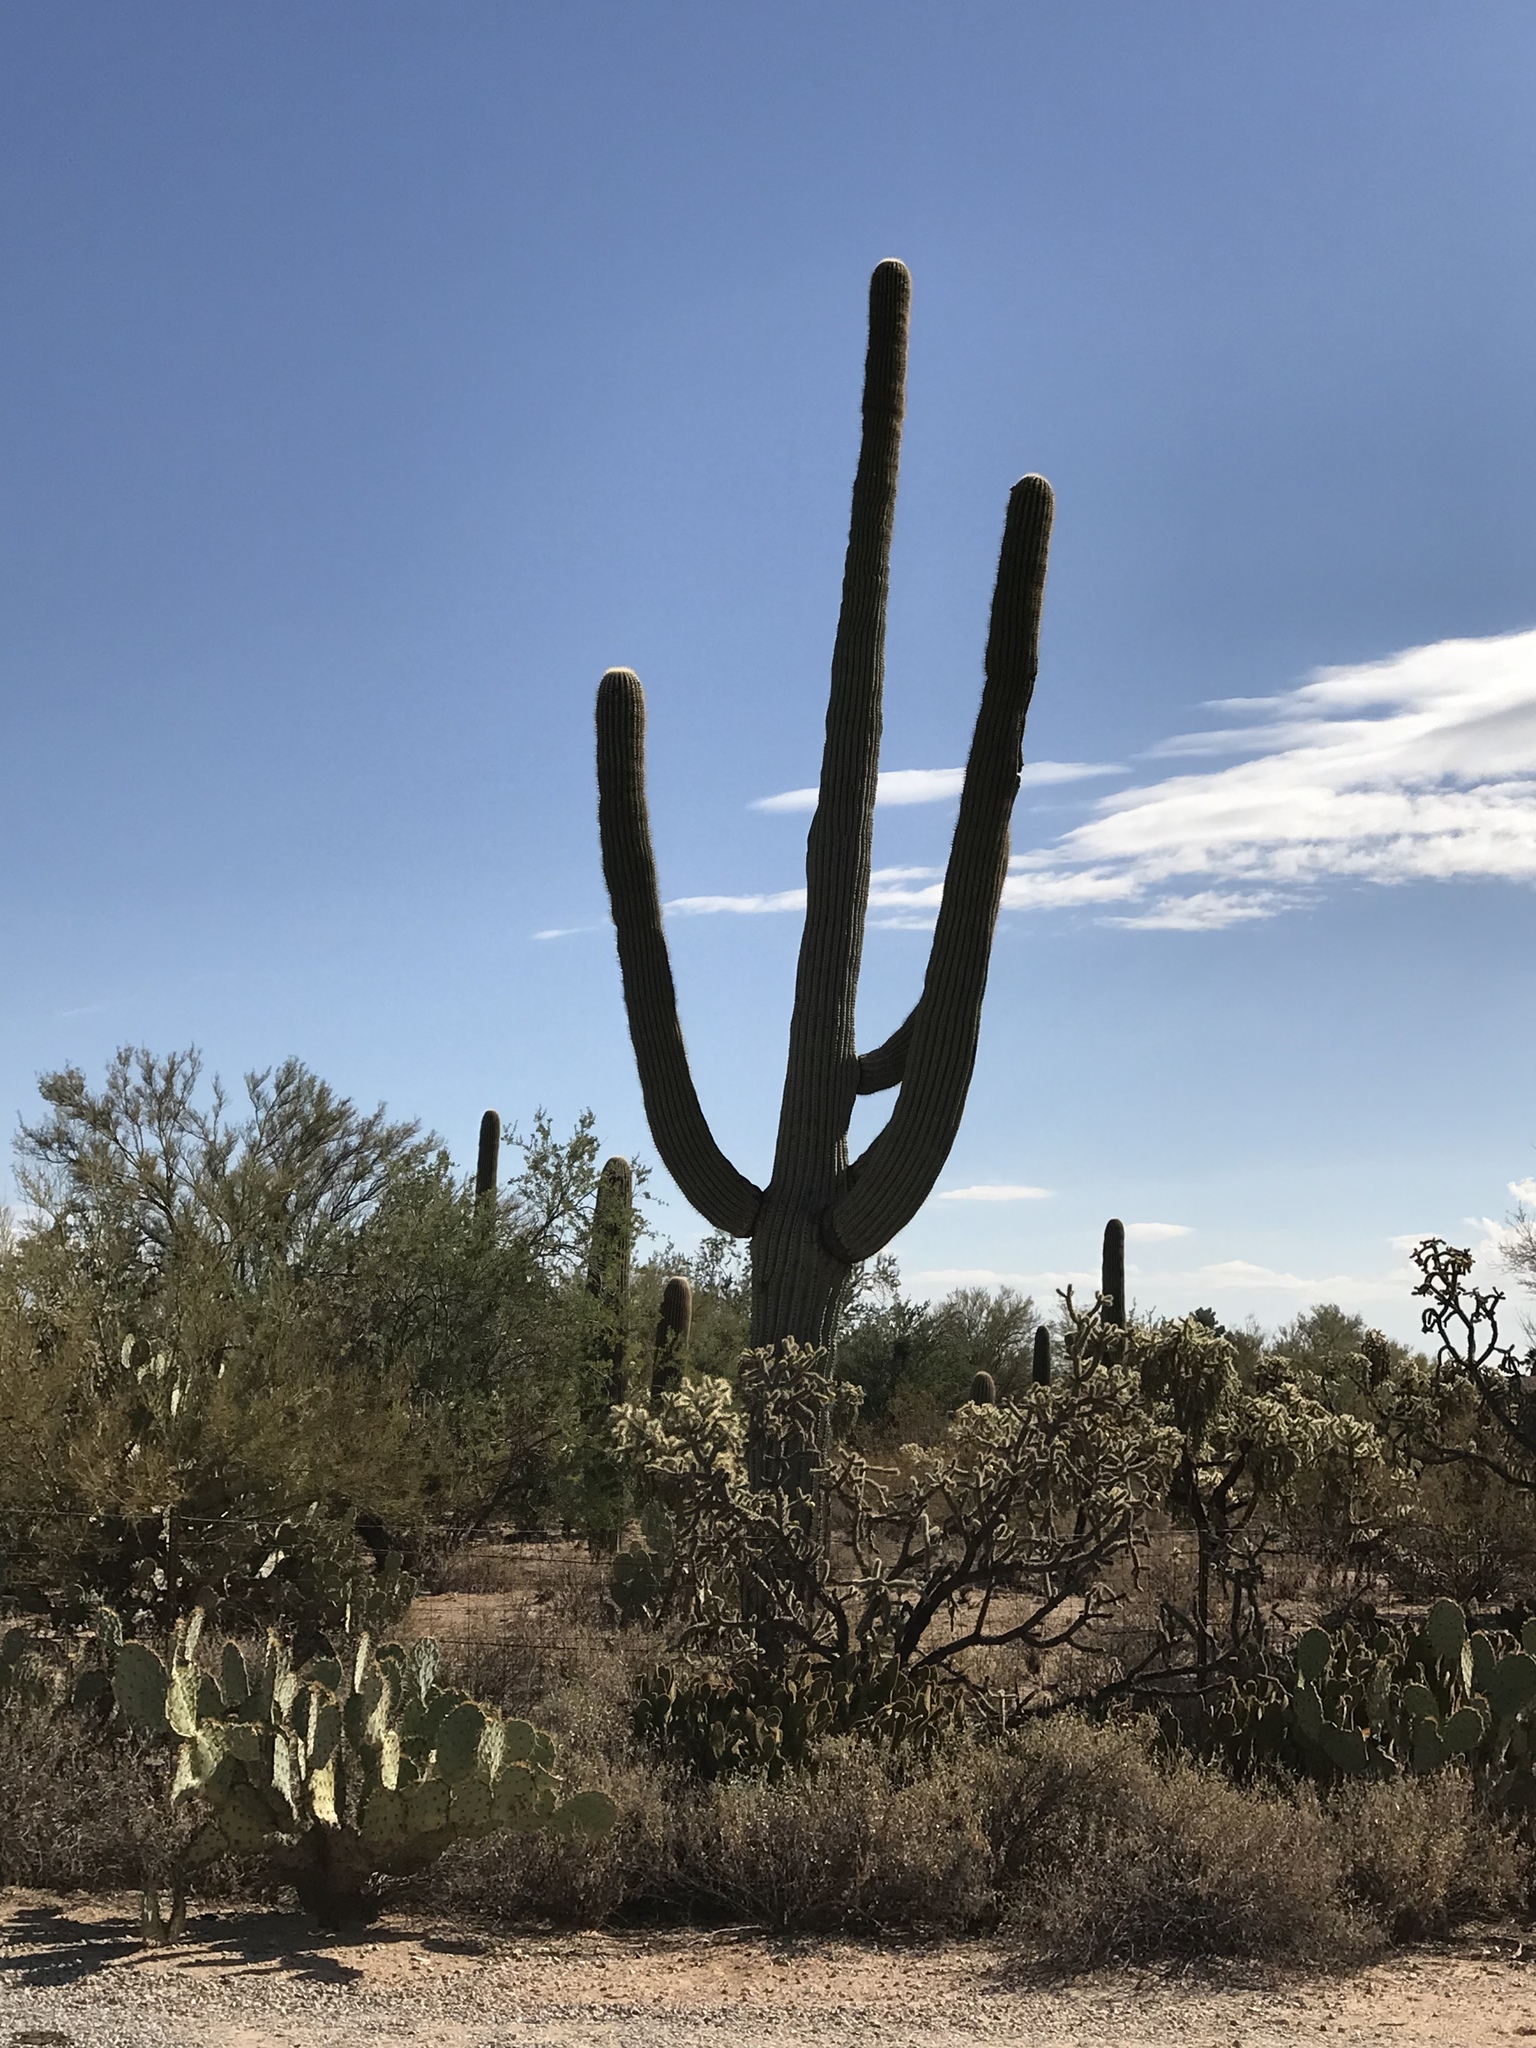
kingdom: Plantae
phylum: Tracheophyta
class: Magnoliopsida
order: Caryophyllales
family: Cactaceae
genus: Carnegiea
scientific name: Carnegiea gigantea
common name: Saguaro
